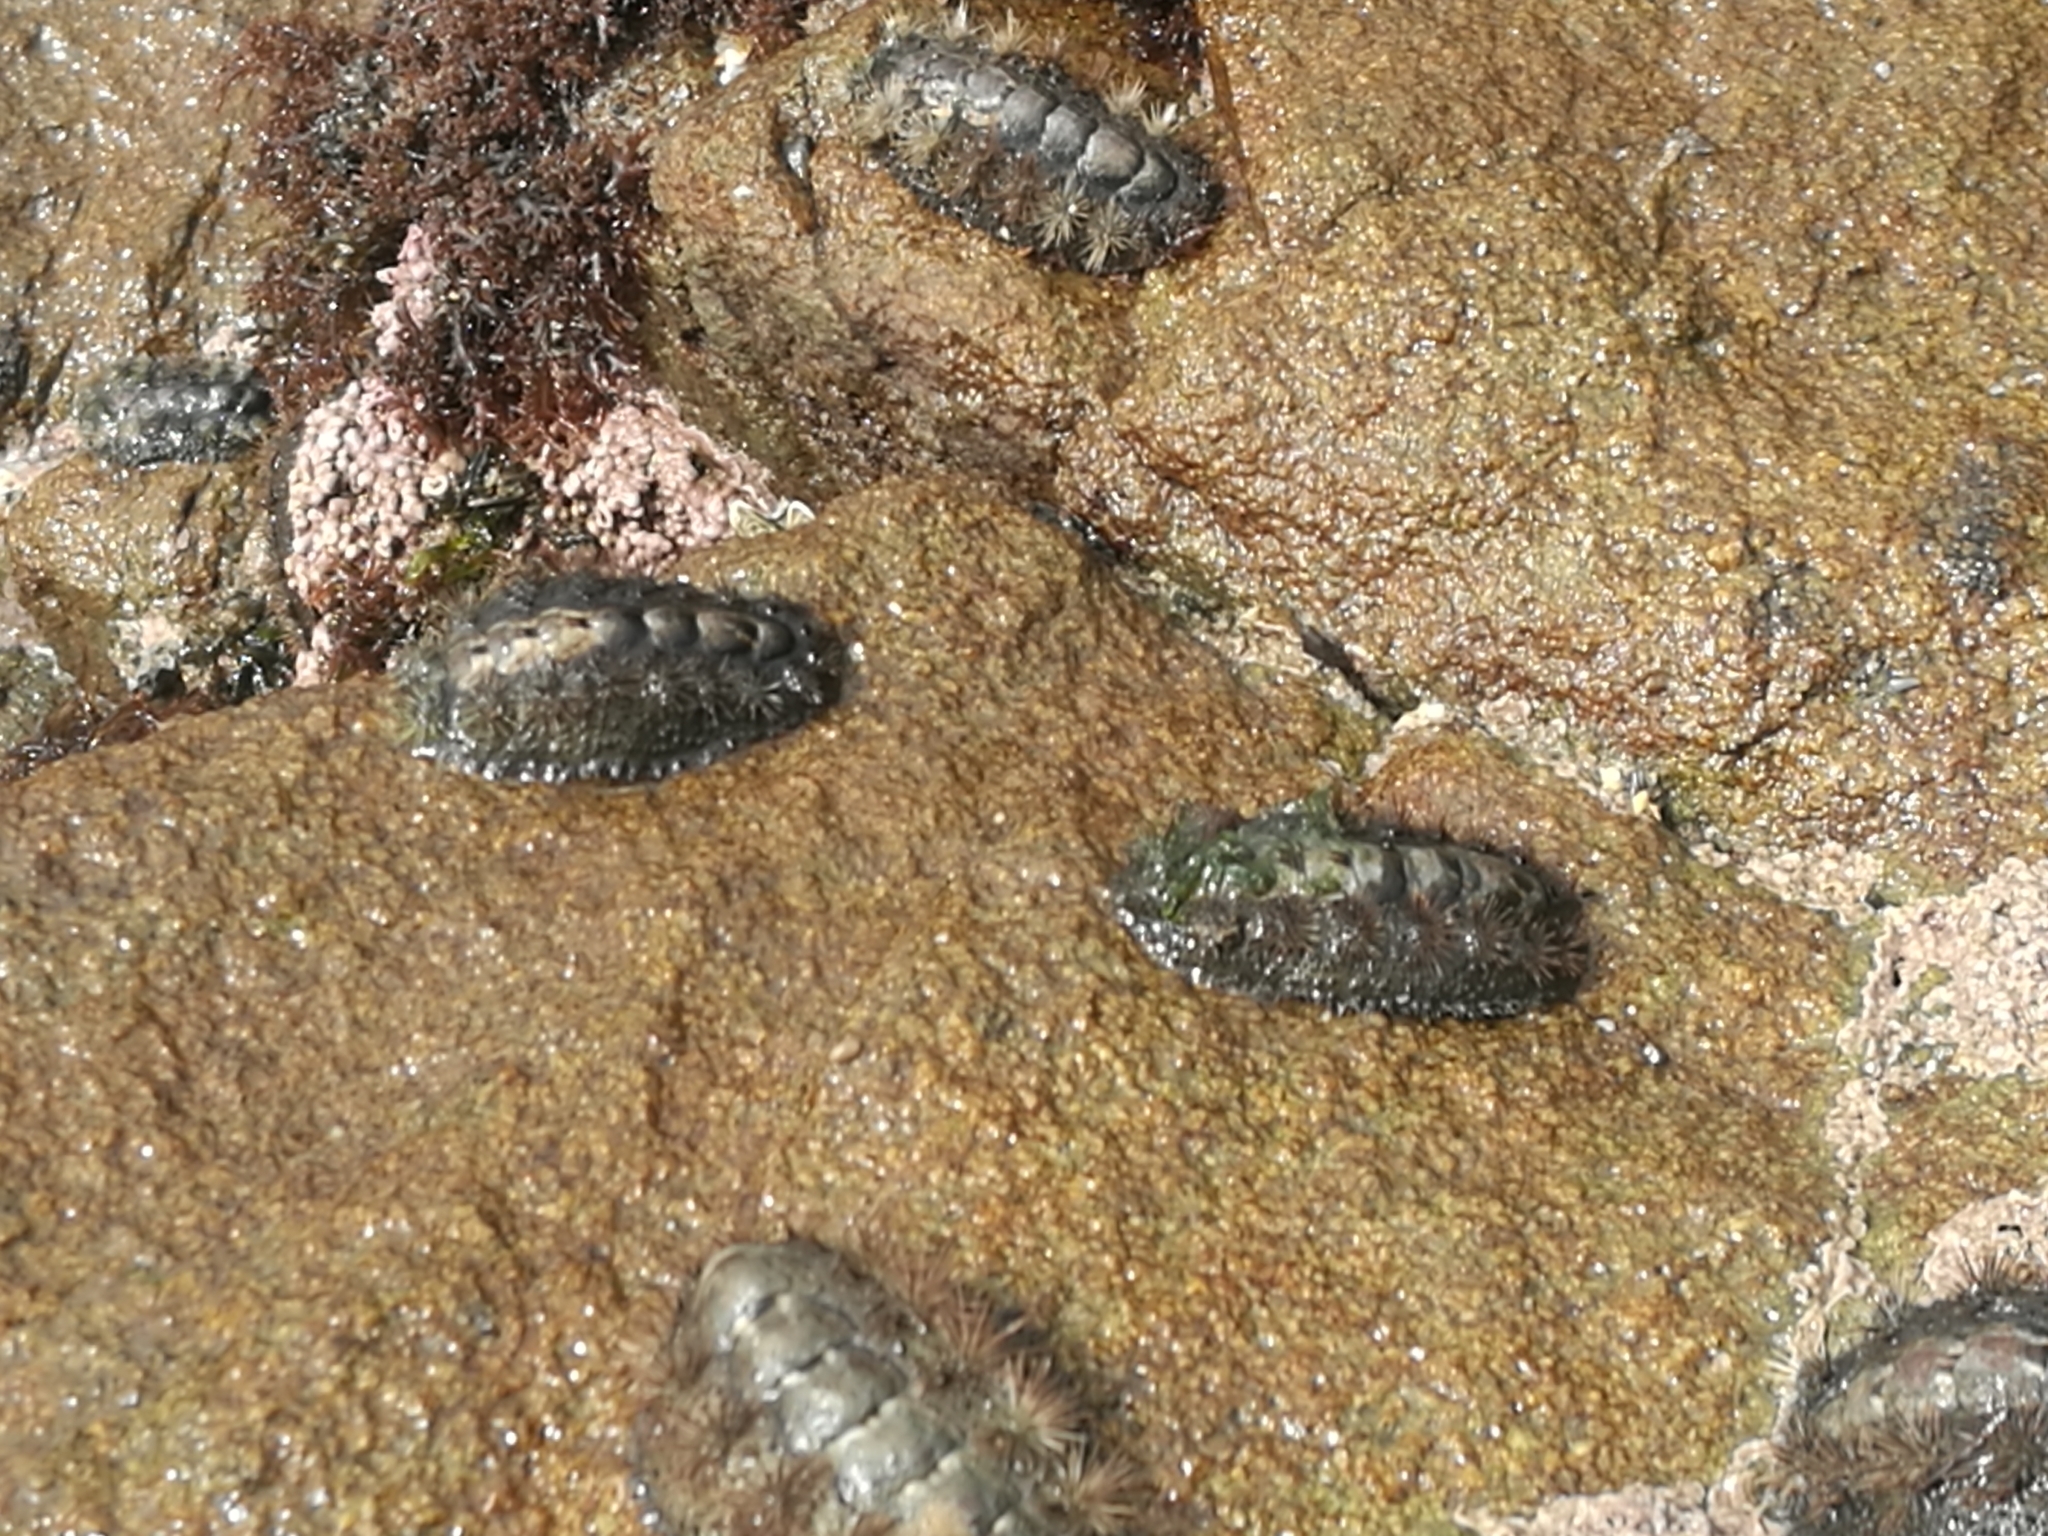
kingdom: Animalia
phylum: Mollusca
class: Polyplacophora
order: Chitonida
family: Acanthochitonidae
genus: Acanthochitona
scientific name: Acanthochitona garnoti
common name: Spiny chiton
